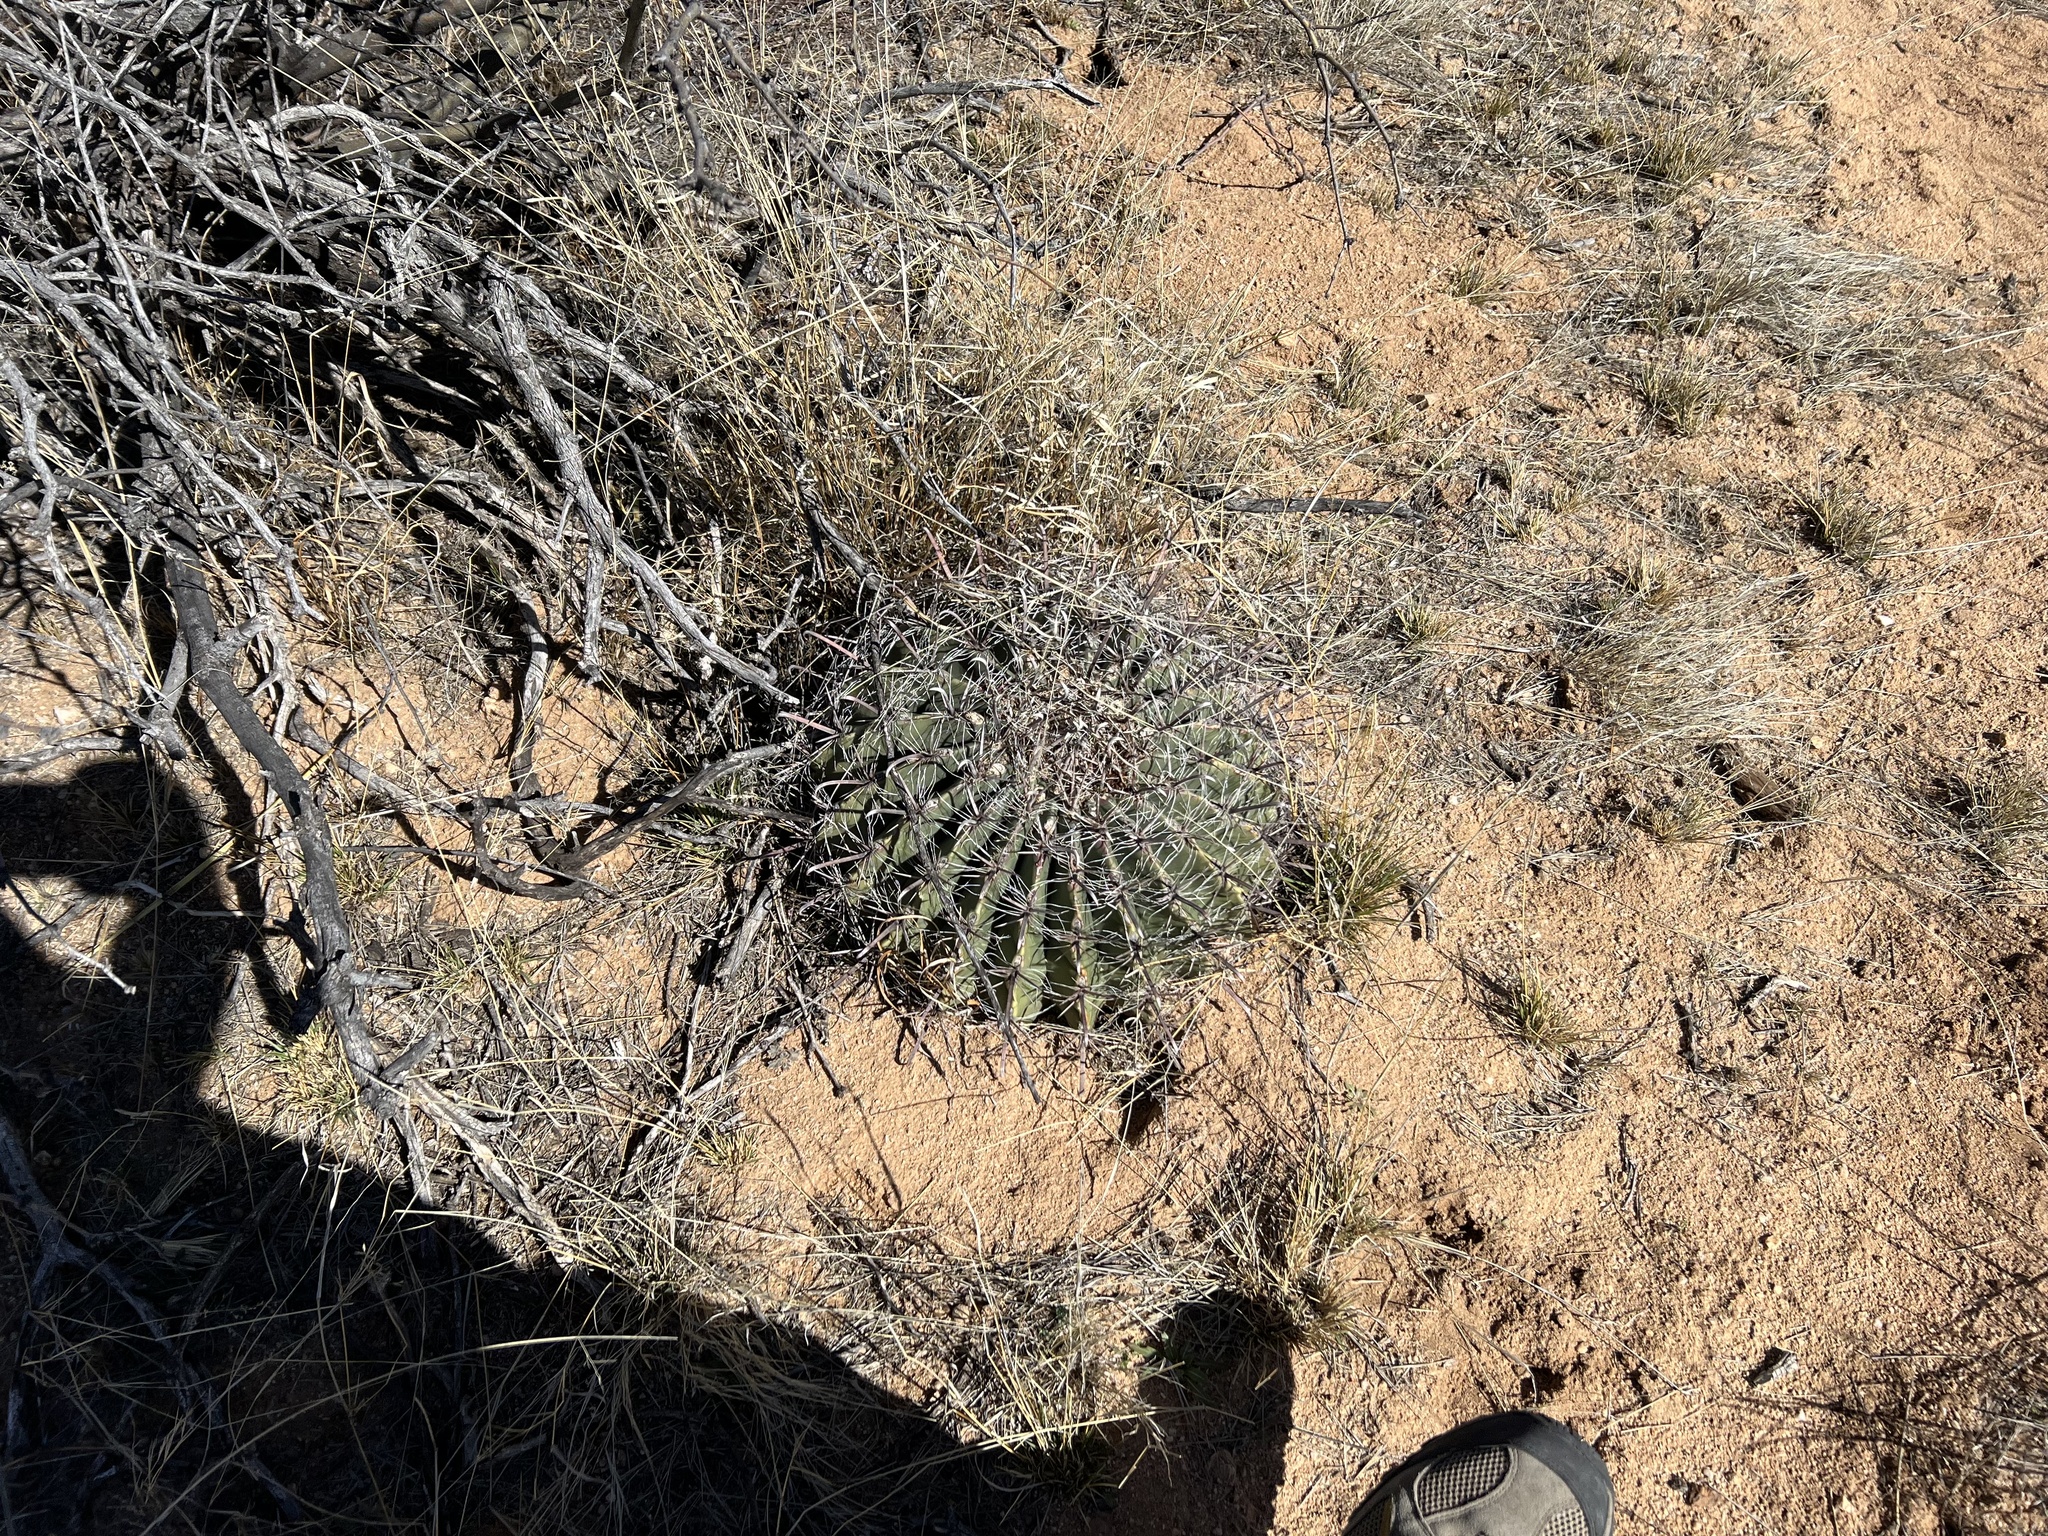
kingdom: Plantae
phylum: Tracheophyta
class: Magnoliopsida
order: Caryophyllales
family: Cactaceae
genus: Ferocactus
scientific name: Ferocactus wislizeni
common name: Candy barrel cactus
